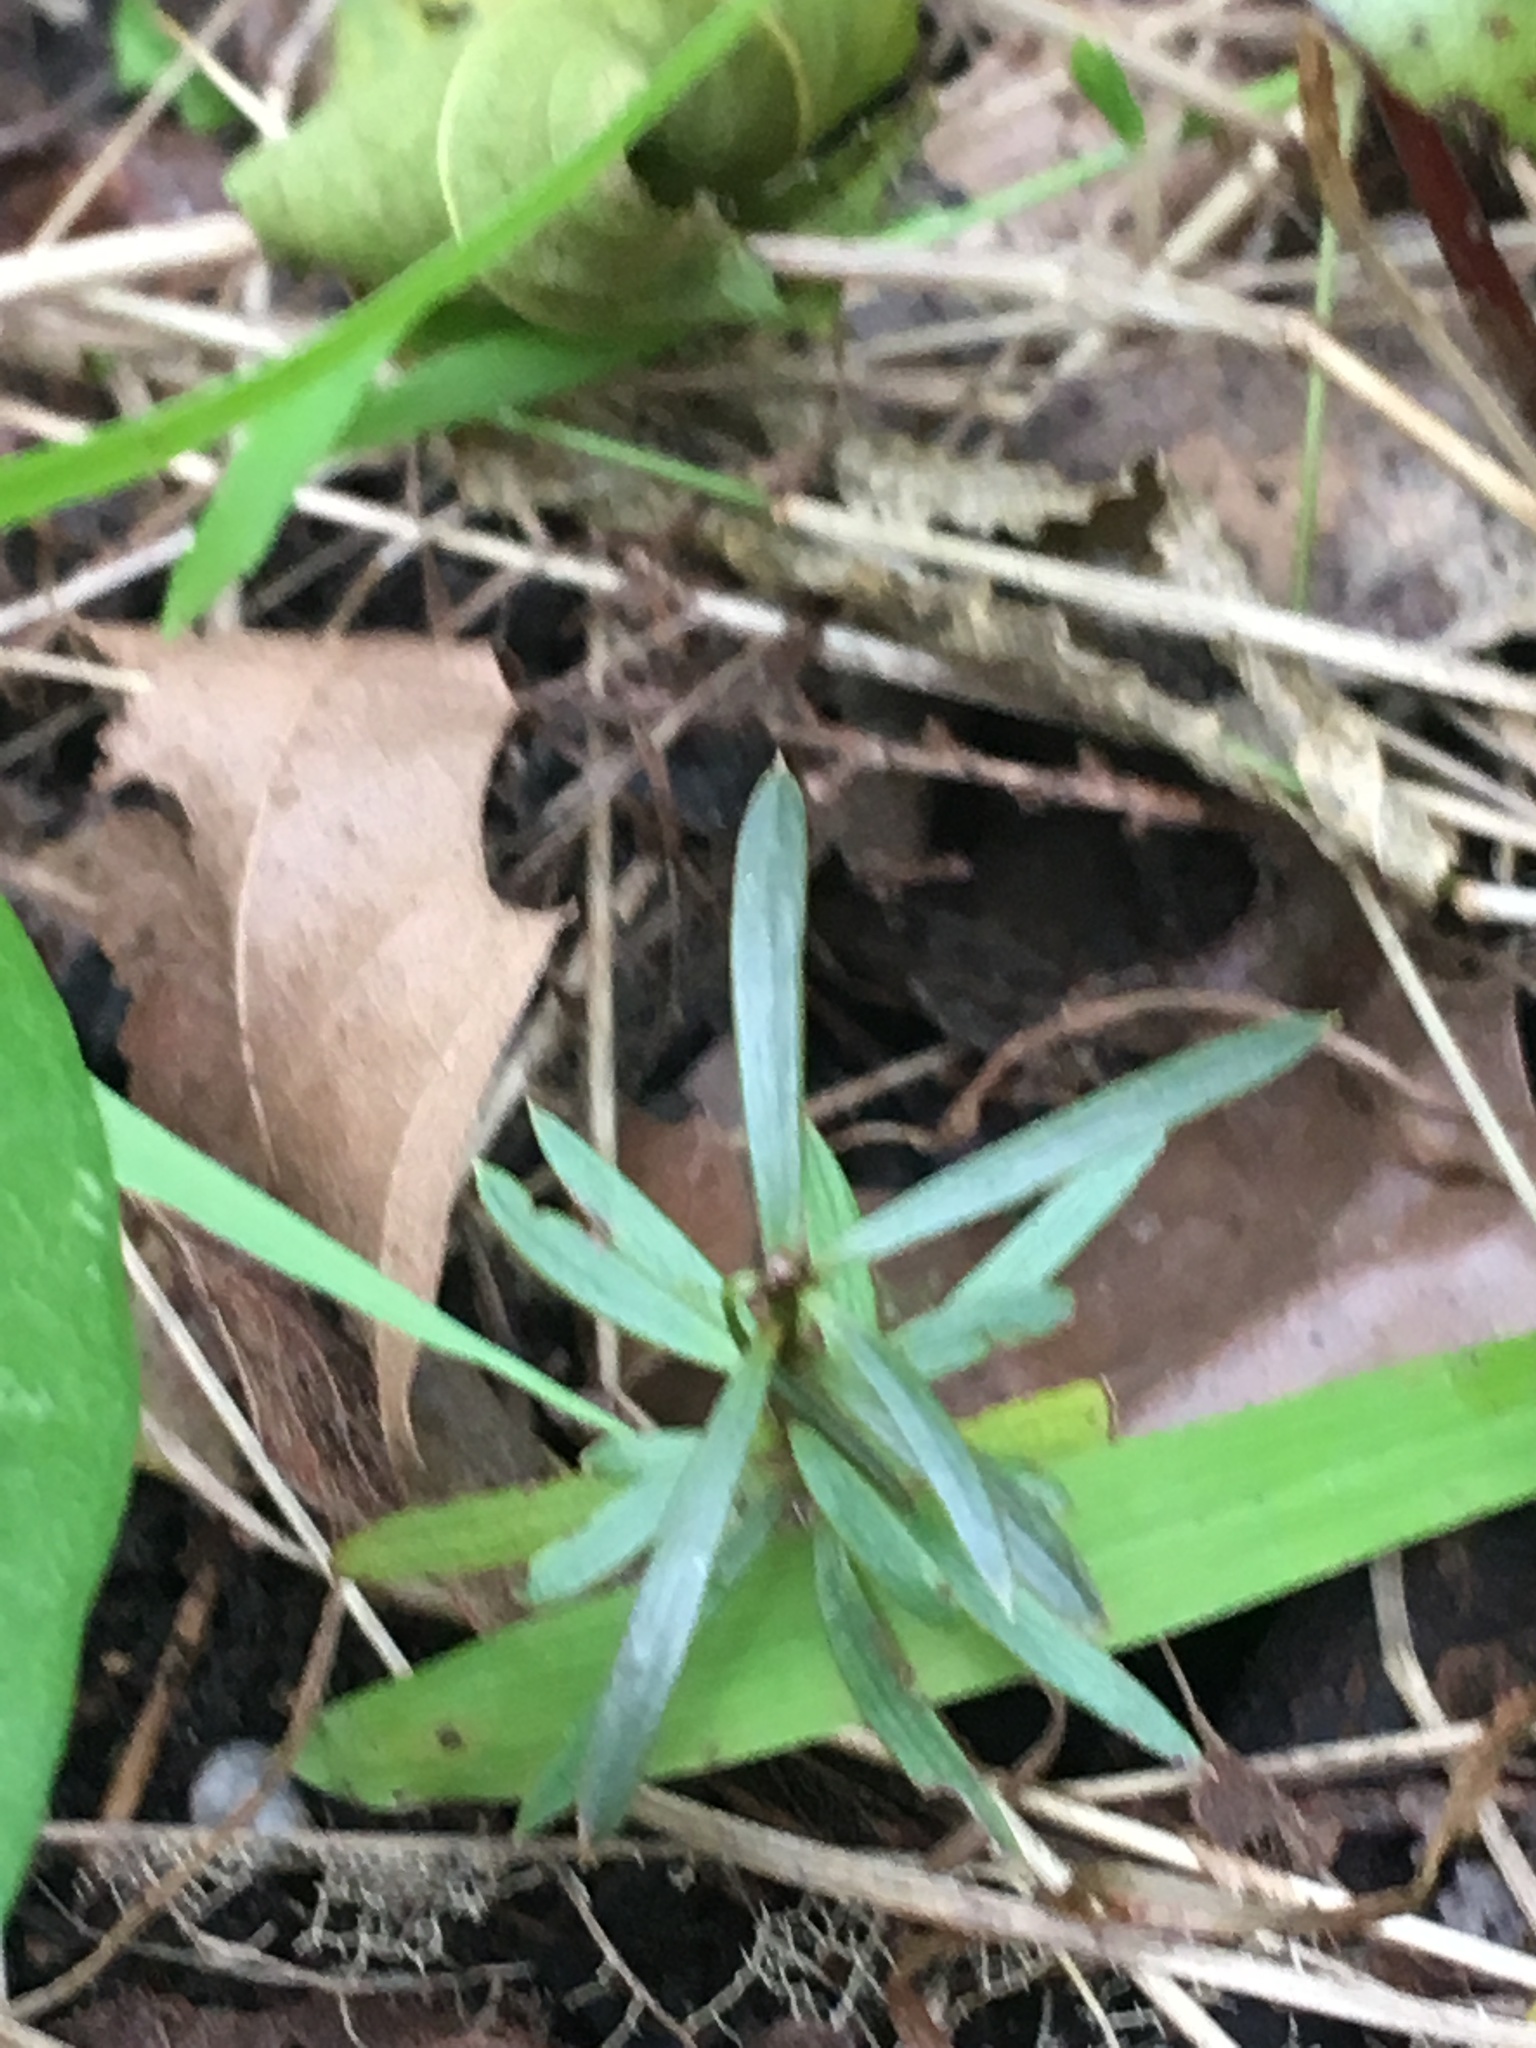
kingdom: Plantae
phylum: Tracheophyta
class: Pinopsida
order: Pinales
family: Podocarpaceae
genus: Podocarpus
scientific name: Podocarpus totara
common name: Totara
